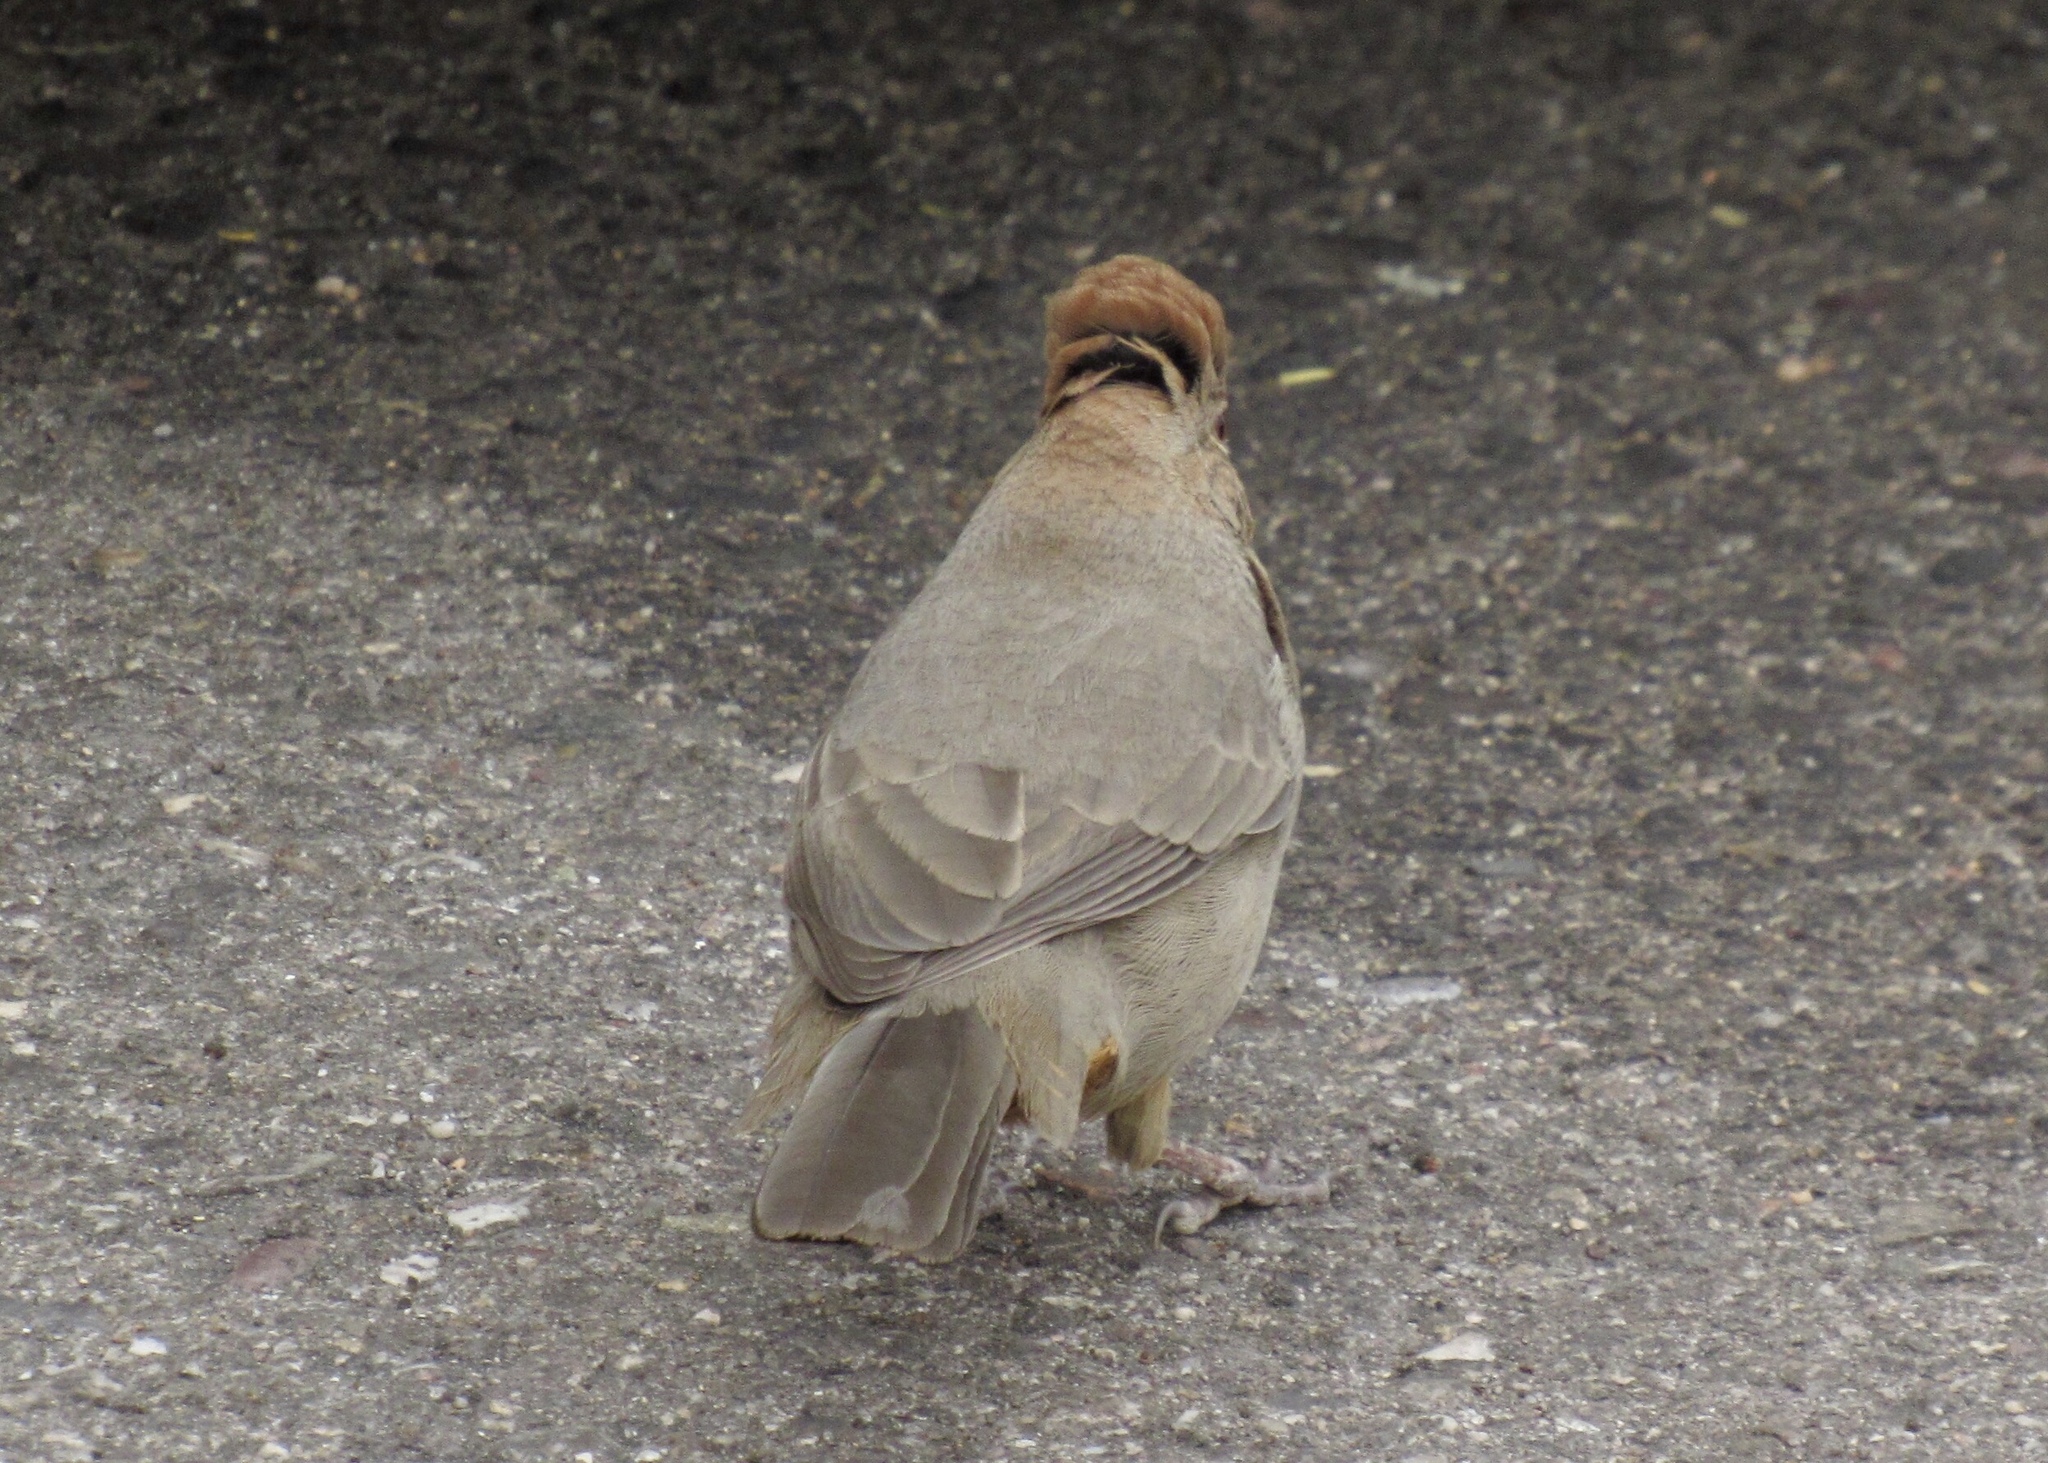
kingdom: Animalia
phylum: Chordata
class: Aves
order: Passeriformes
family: Passerellidae
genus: Melozone
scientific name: Melozone fusca
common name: Canyon towhee
